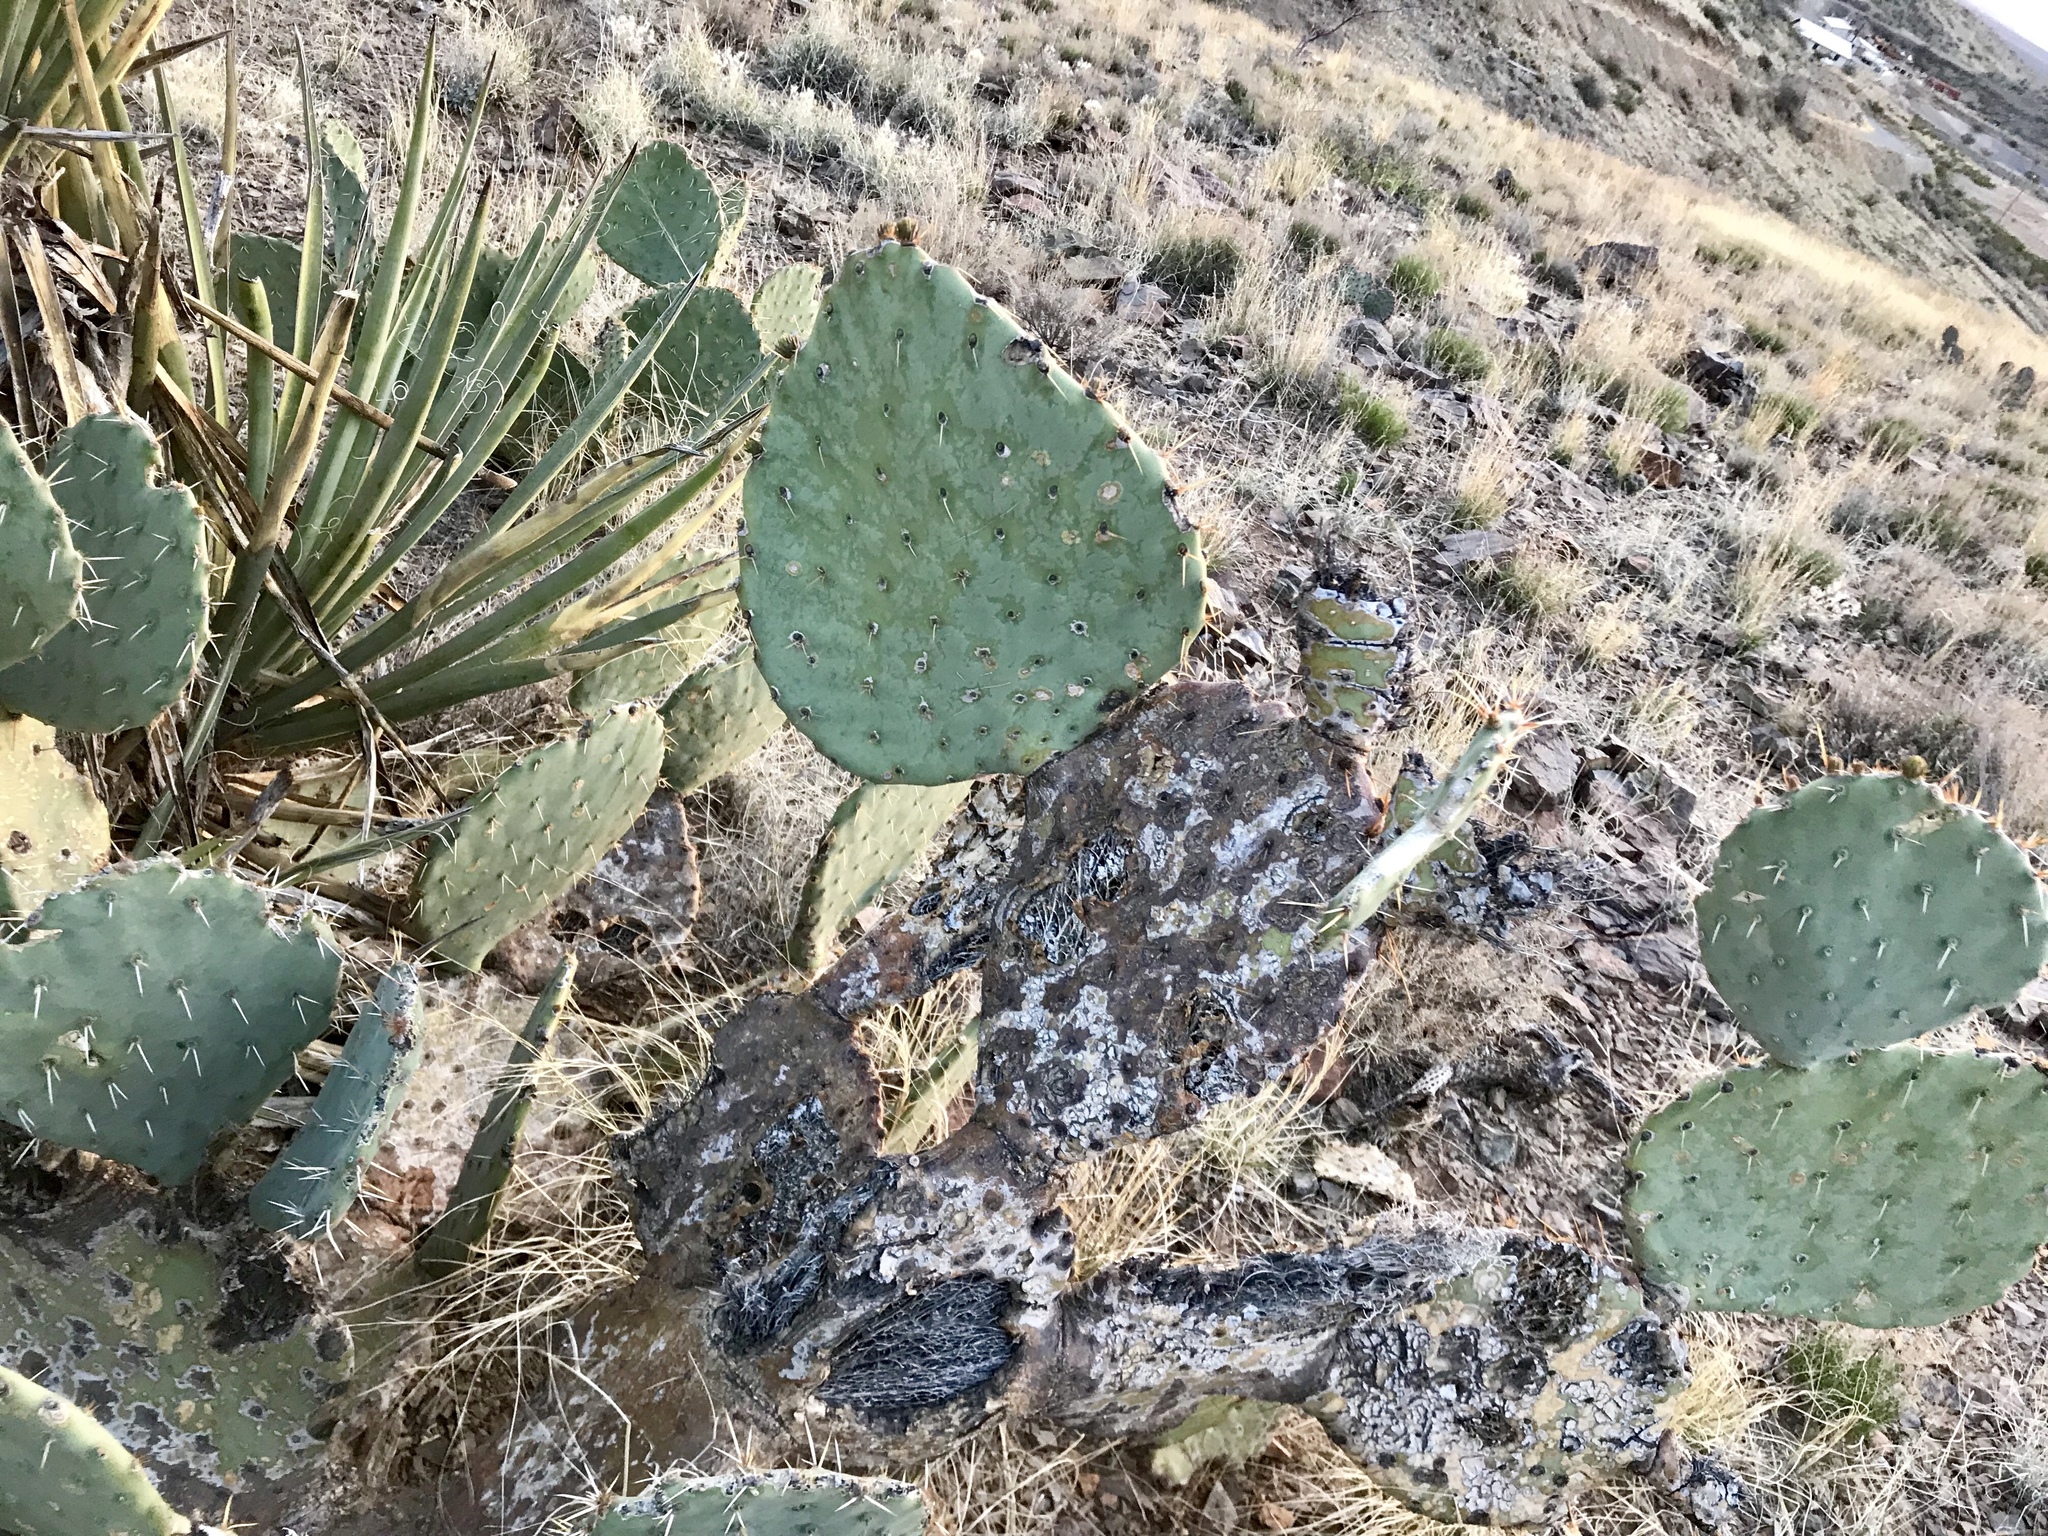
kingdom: Plantae
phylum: Tracheophyta
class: Magnoliopsida
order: Caryophyllales
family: Cactaceae
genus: Opuntia
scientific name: Opuntia engelmannii
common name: Cactus-apple
